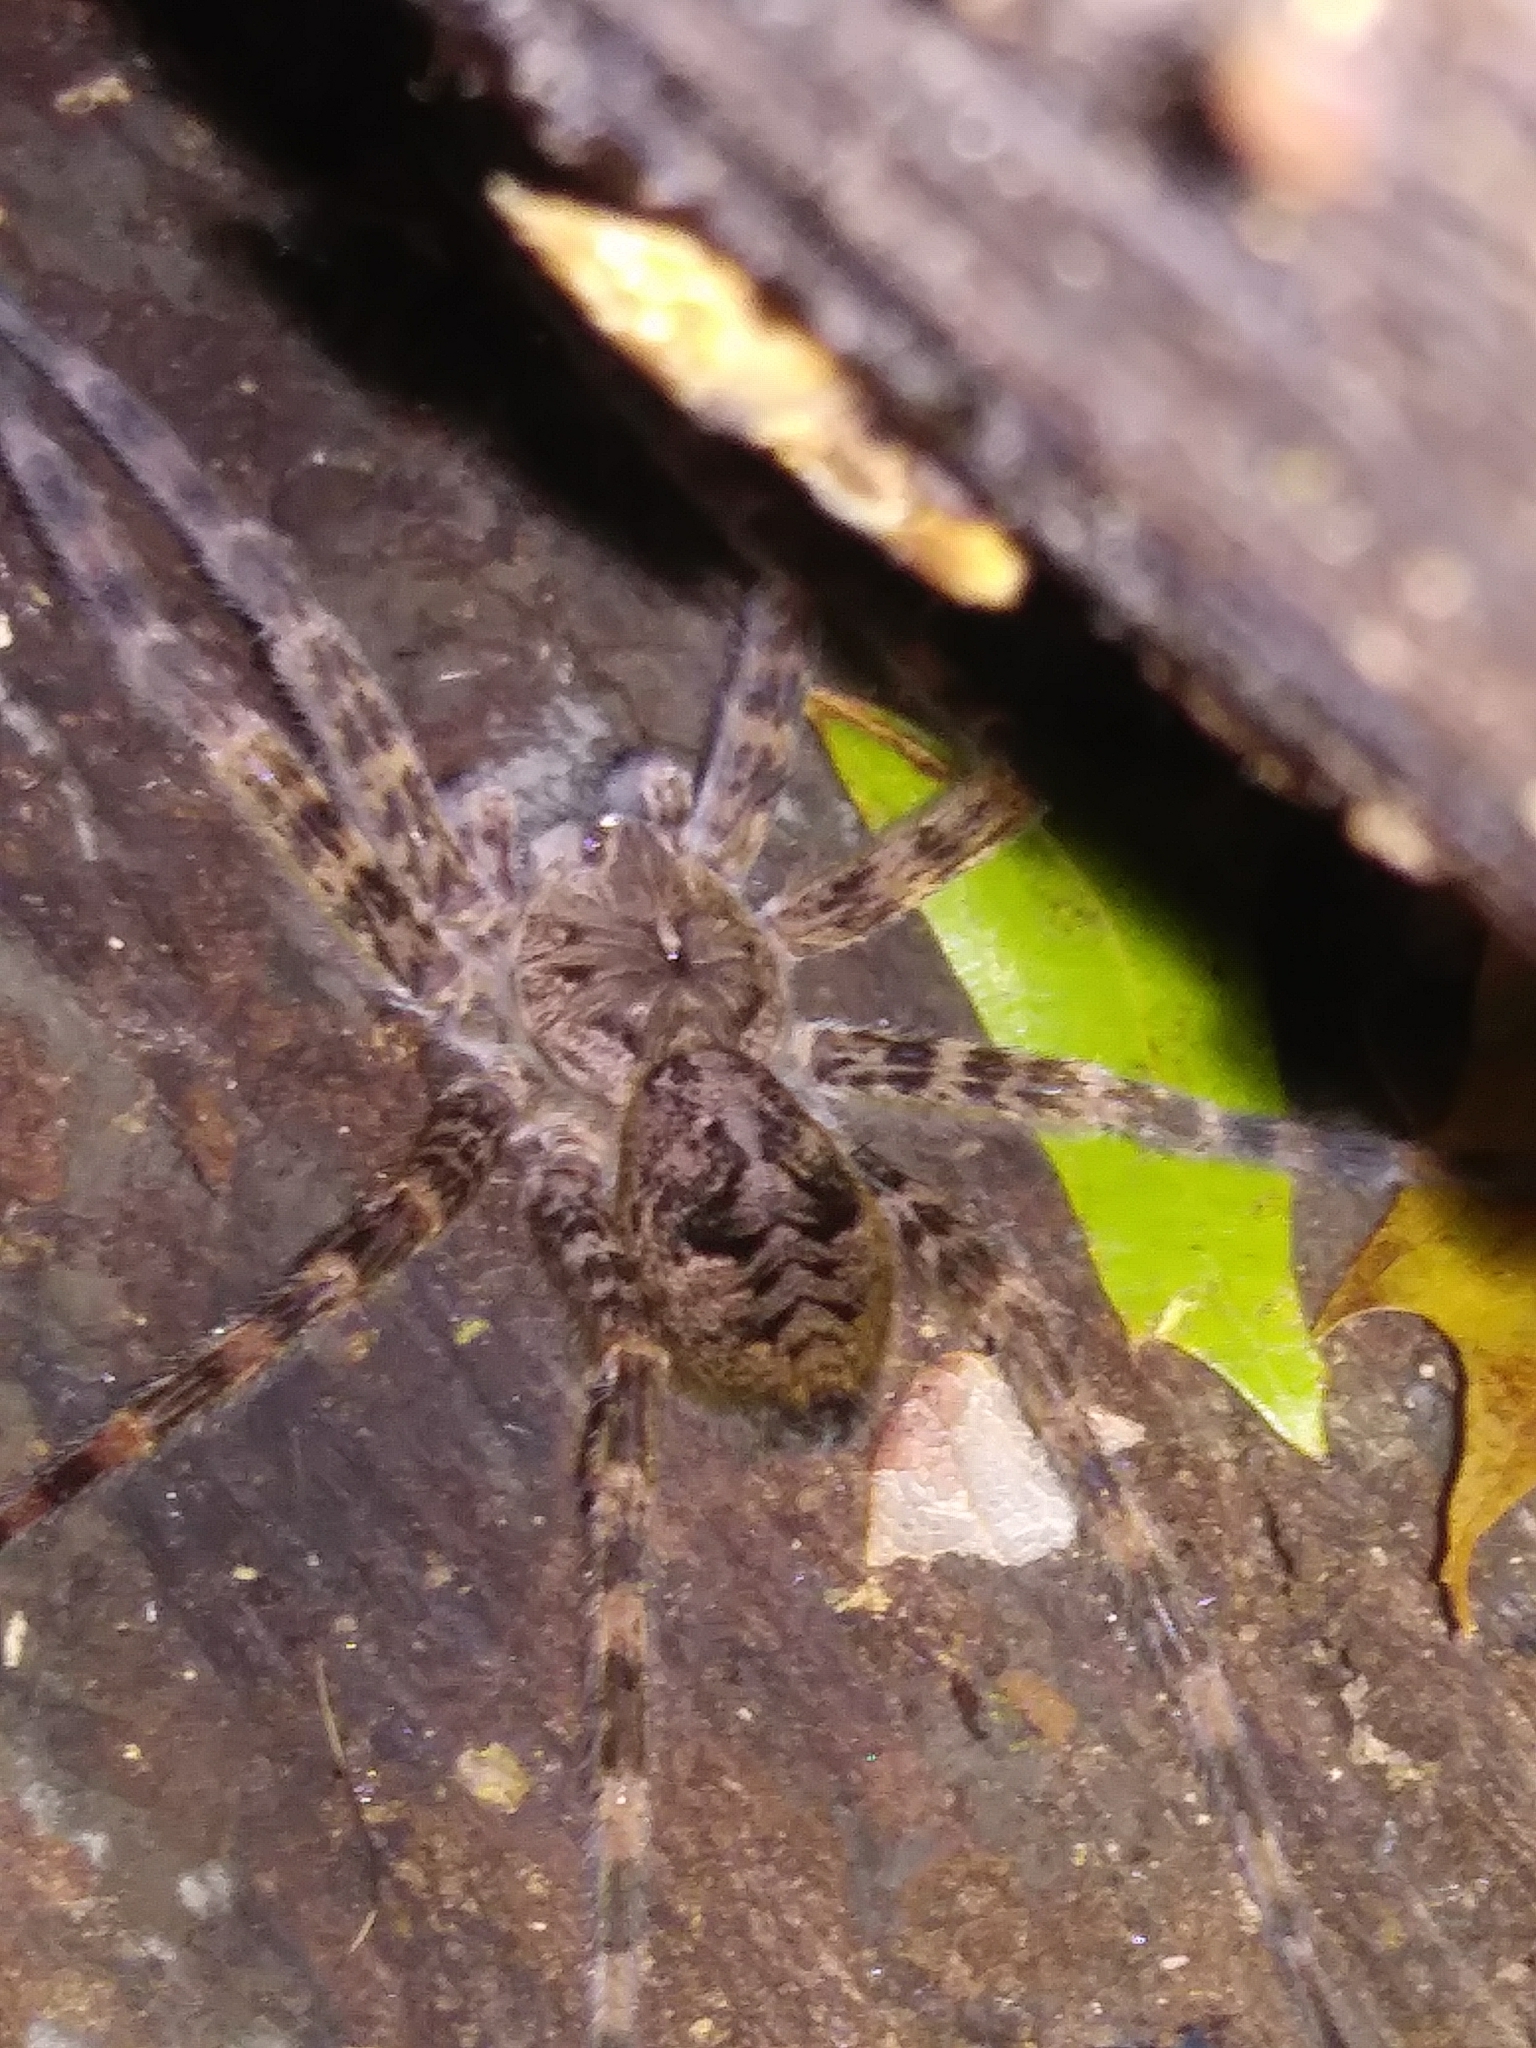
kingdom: Animalia
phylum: Arthropoda
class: Arachnida
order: Araneae
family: Pisauridae
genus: Dolomedes
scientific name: Dolomedes tenebrosus
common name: Dark fishing spider
